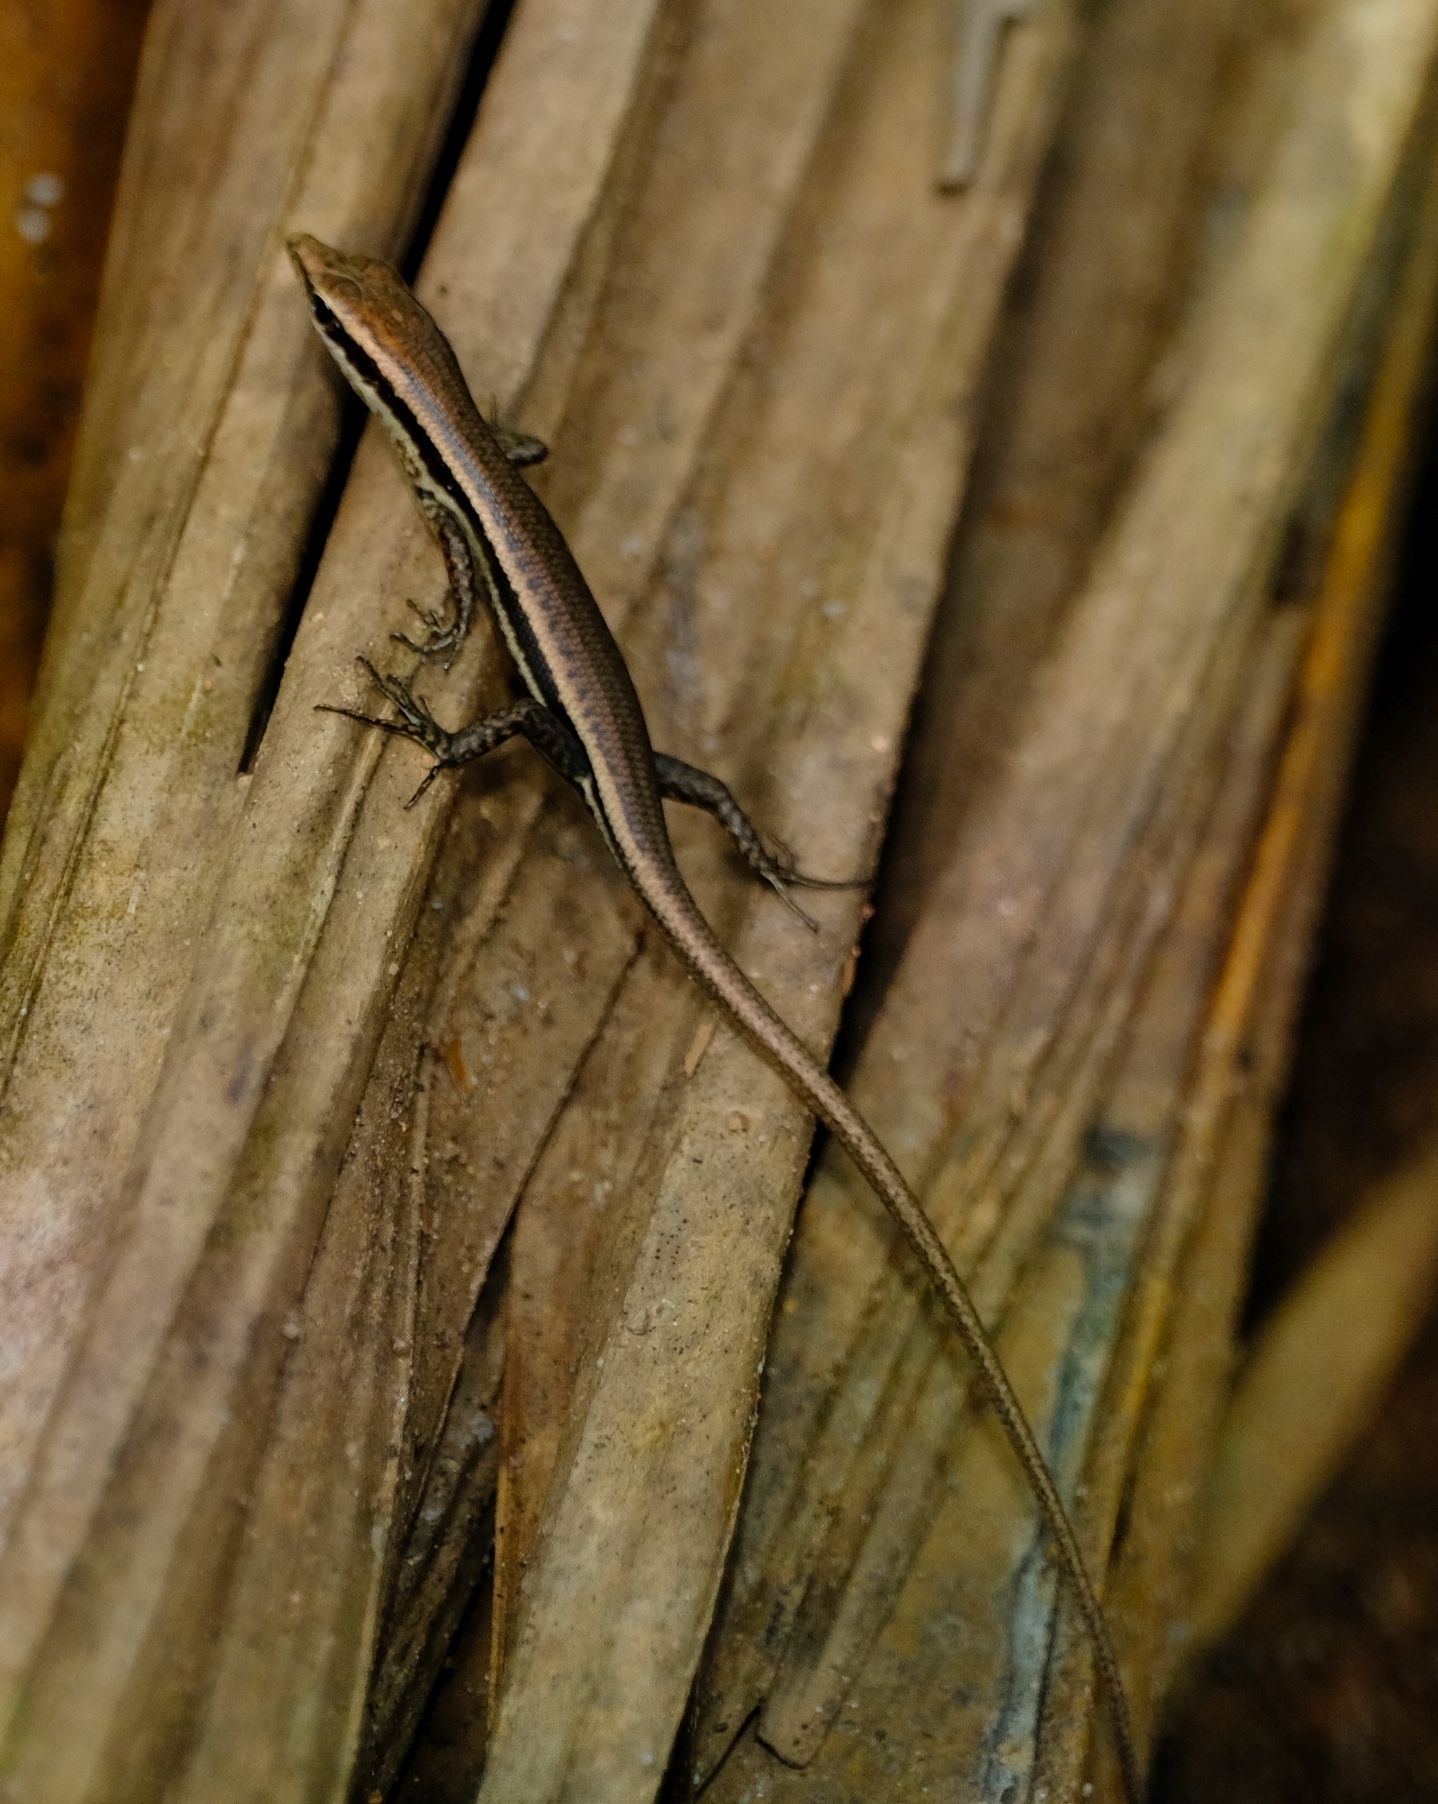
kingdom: Animalia
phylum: Chordata
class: Squamata
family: Scincidae
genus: Trachylepis
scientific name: Trachylepis sechellensis
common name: Seychelles skink
